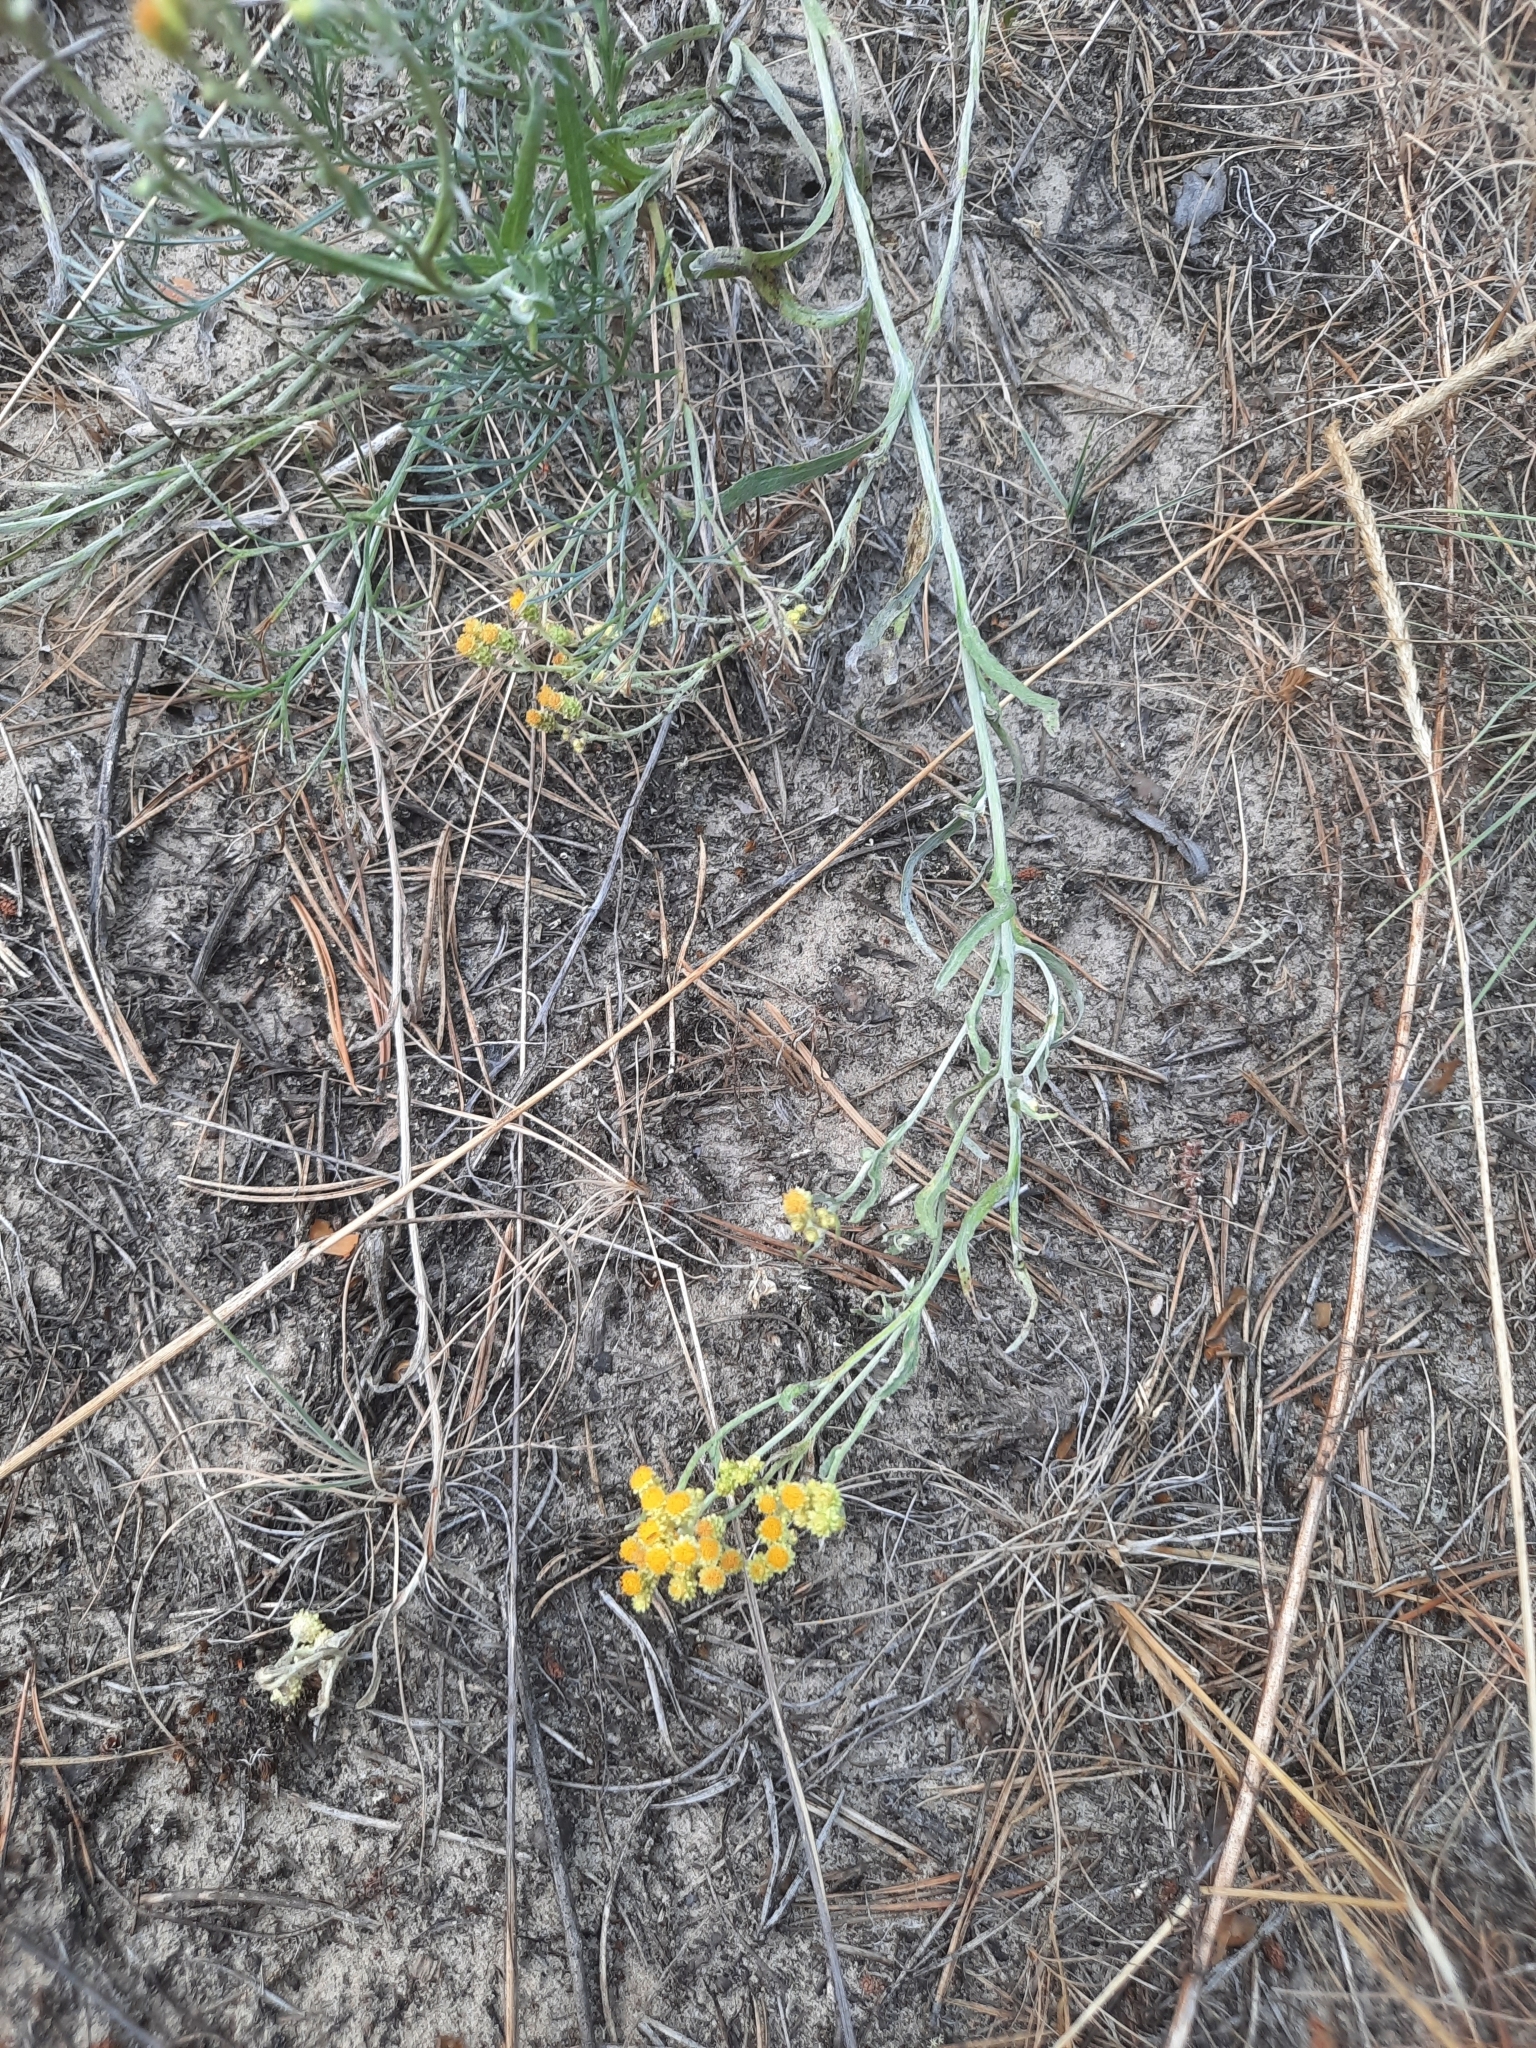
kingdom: Plantae
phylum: Tracheophyta
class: Magnoliopsida
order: Asterales
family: Asteraceae
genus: Helichrysum
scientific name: Helichrysum arenarium
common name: Strawflower
